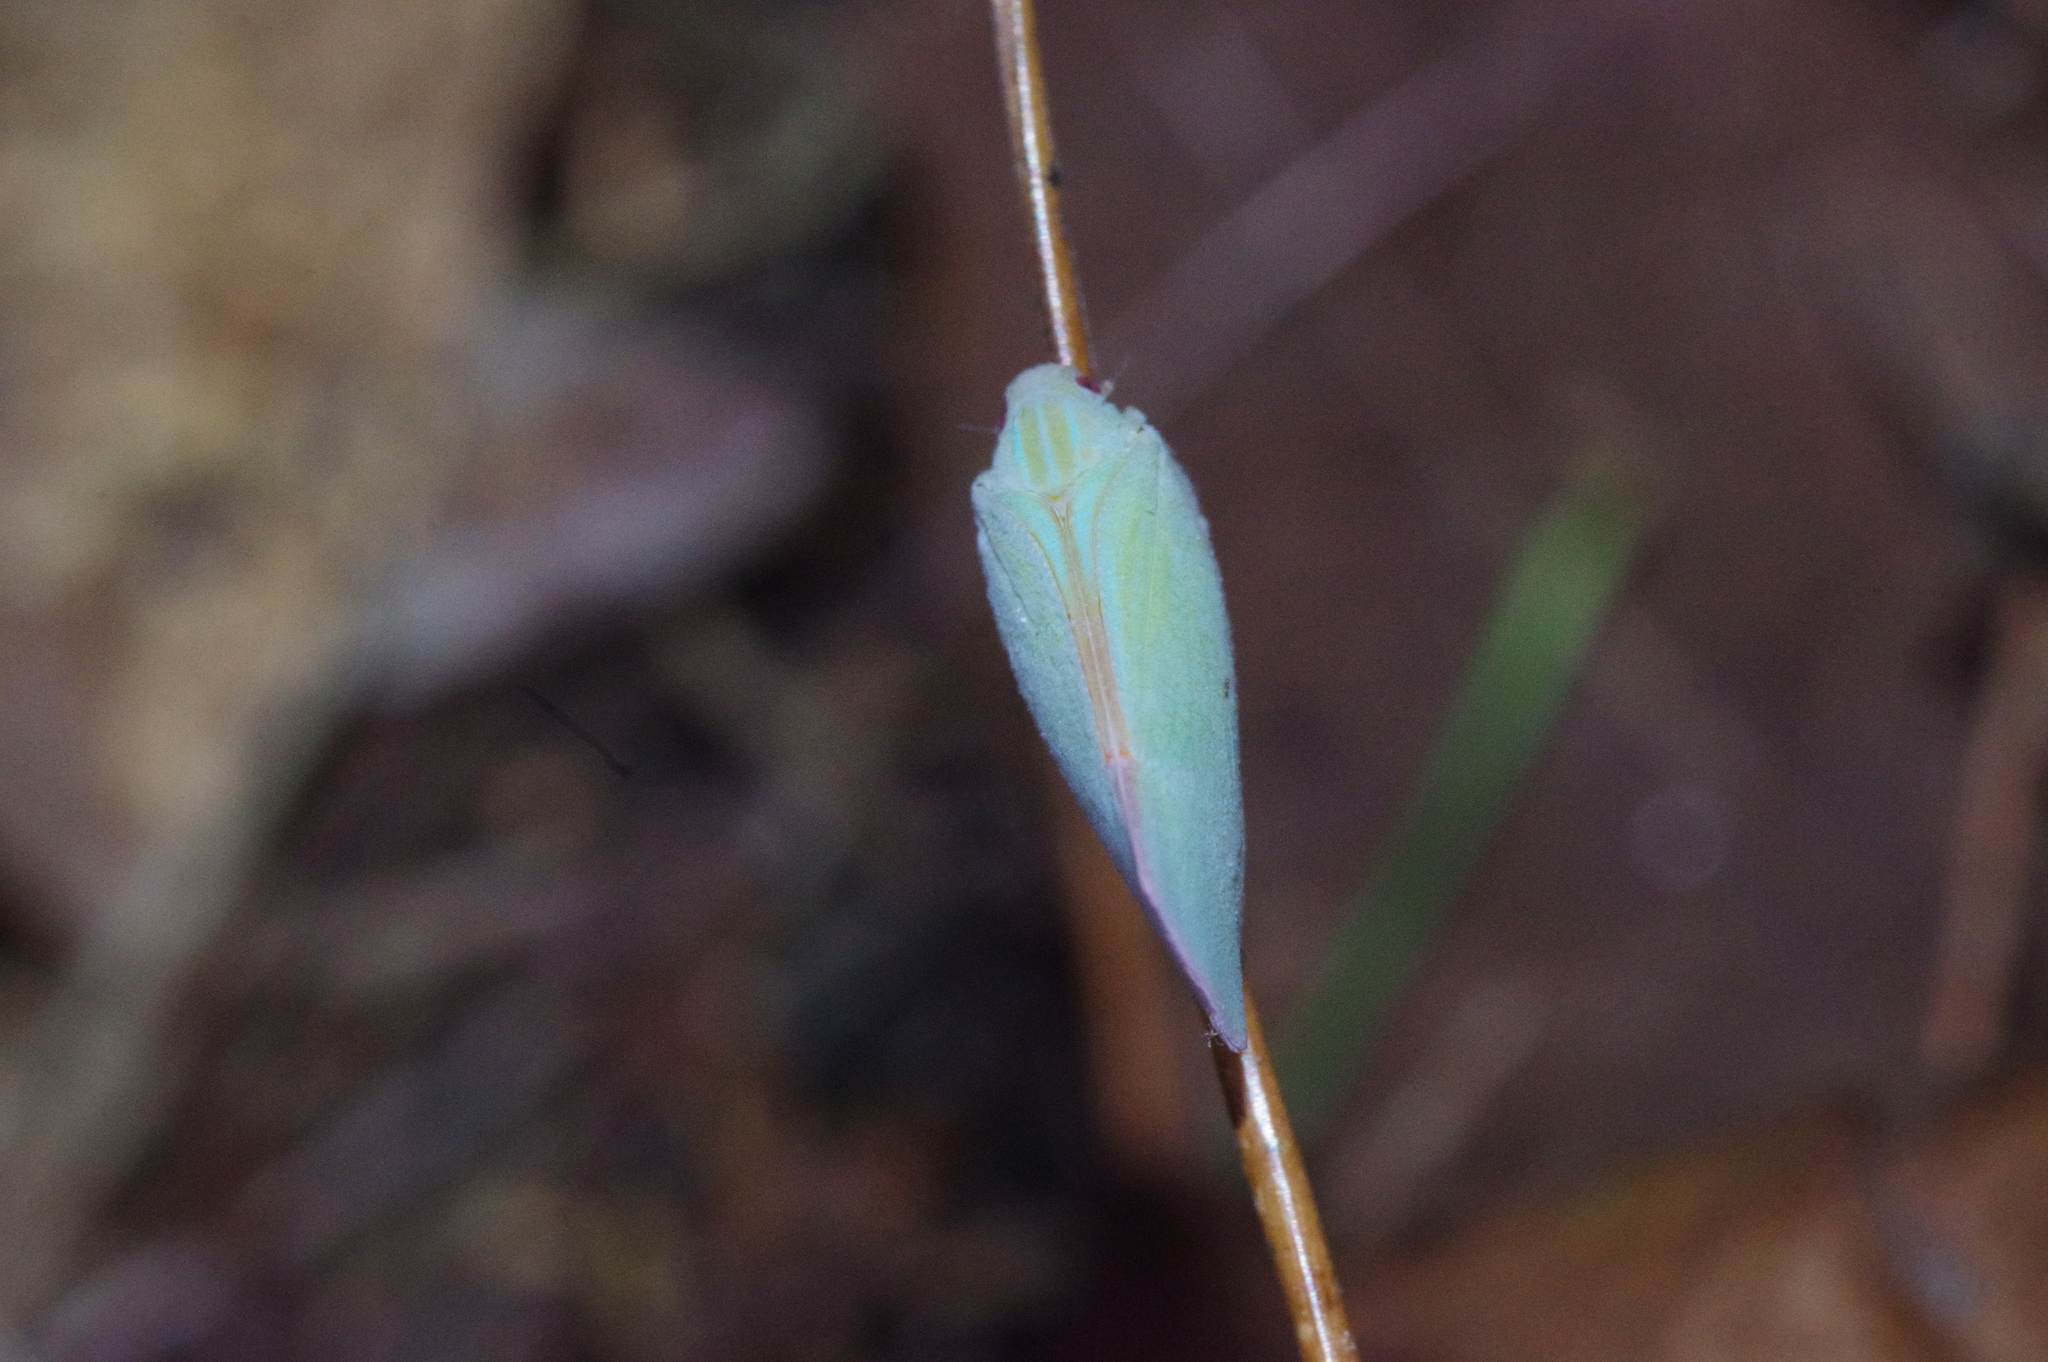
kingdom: Animalia
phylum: Arthropoda
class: Insecta
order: Hemiptera
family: Flatidae
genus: Geisha
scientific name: Geisha distinctissima
